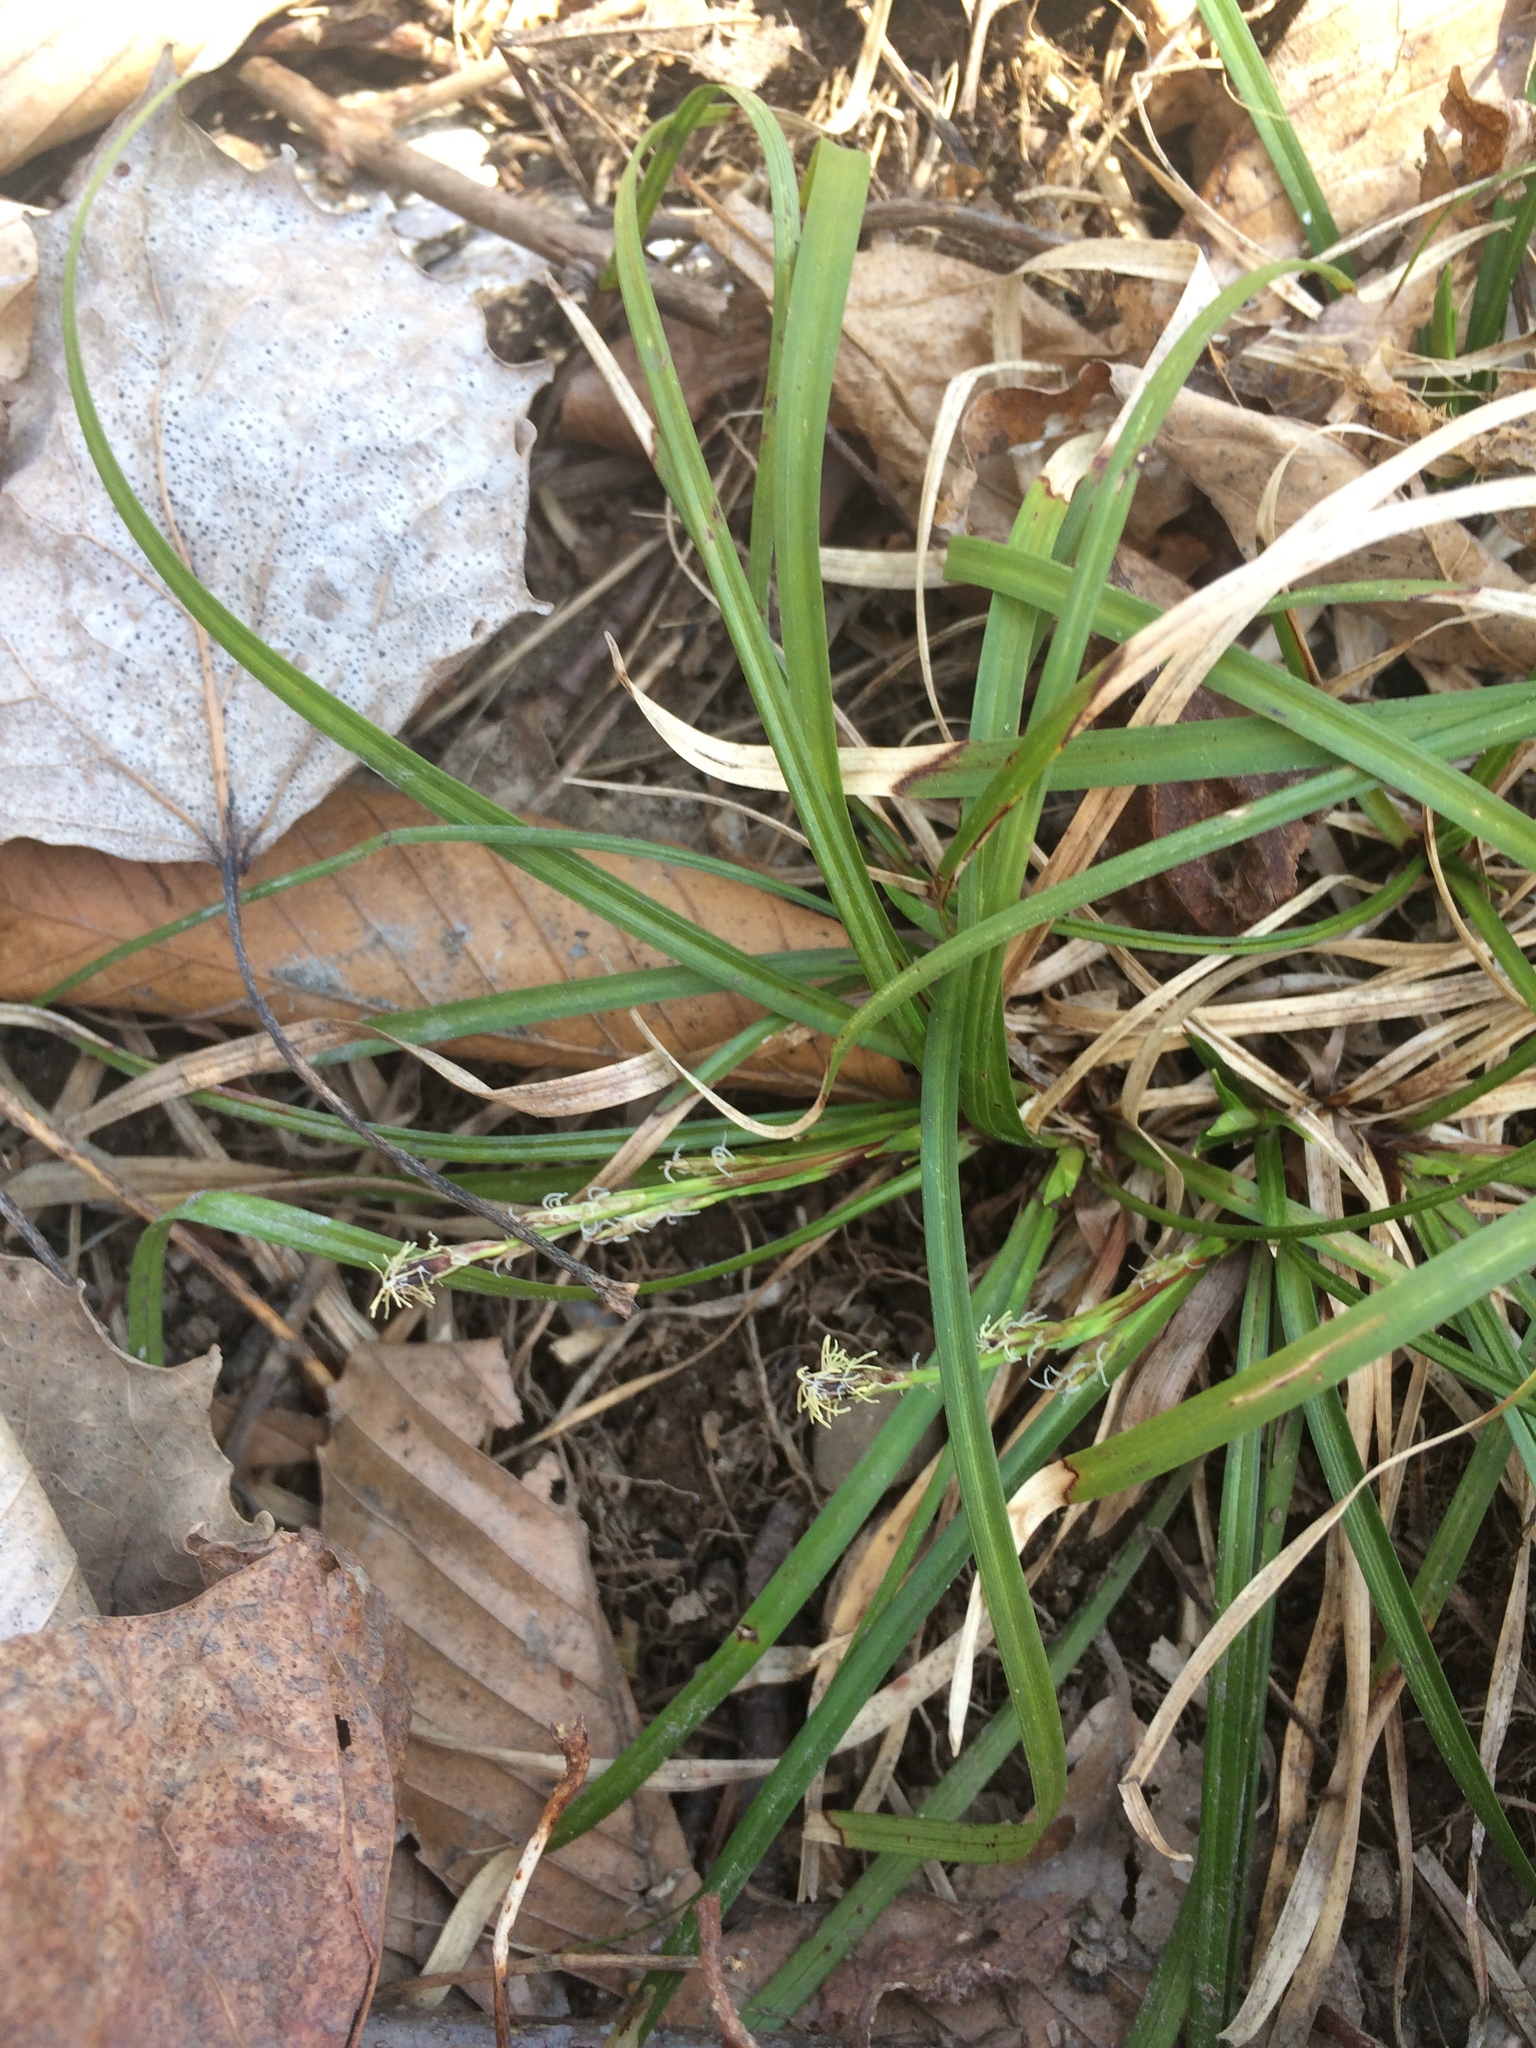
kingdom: Plantae
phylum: Tracheophyta
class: Liliopsida
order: Poales
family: Cyperaceae
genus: Carex
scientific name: Carex pedunculata
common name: Pedunculate sedge
